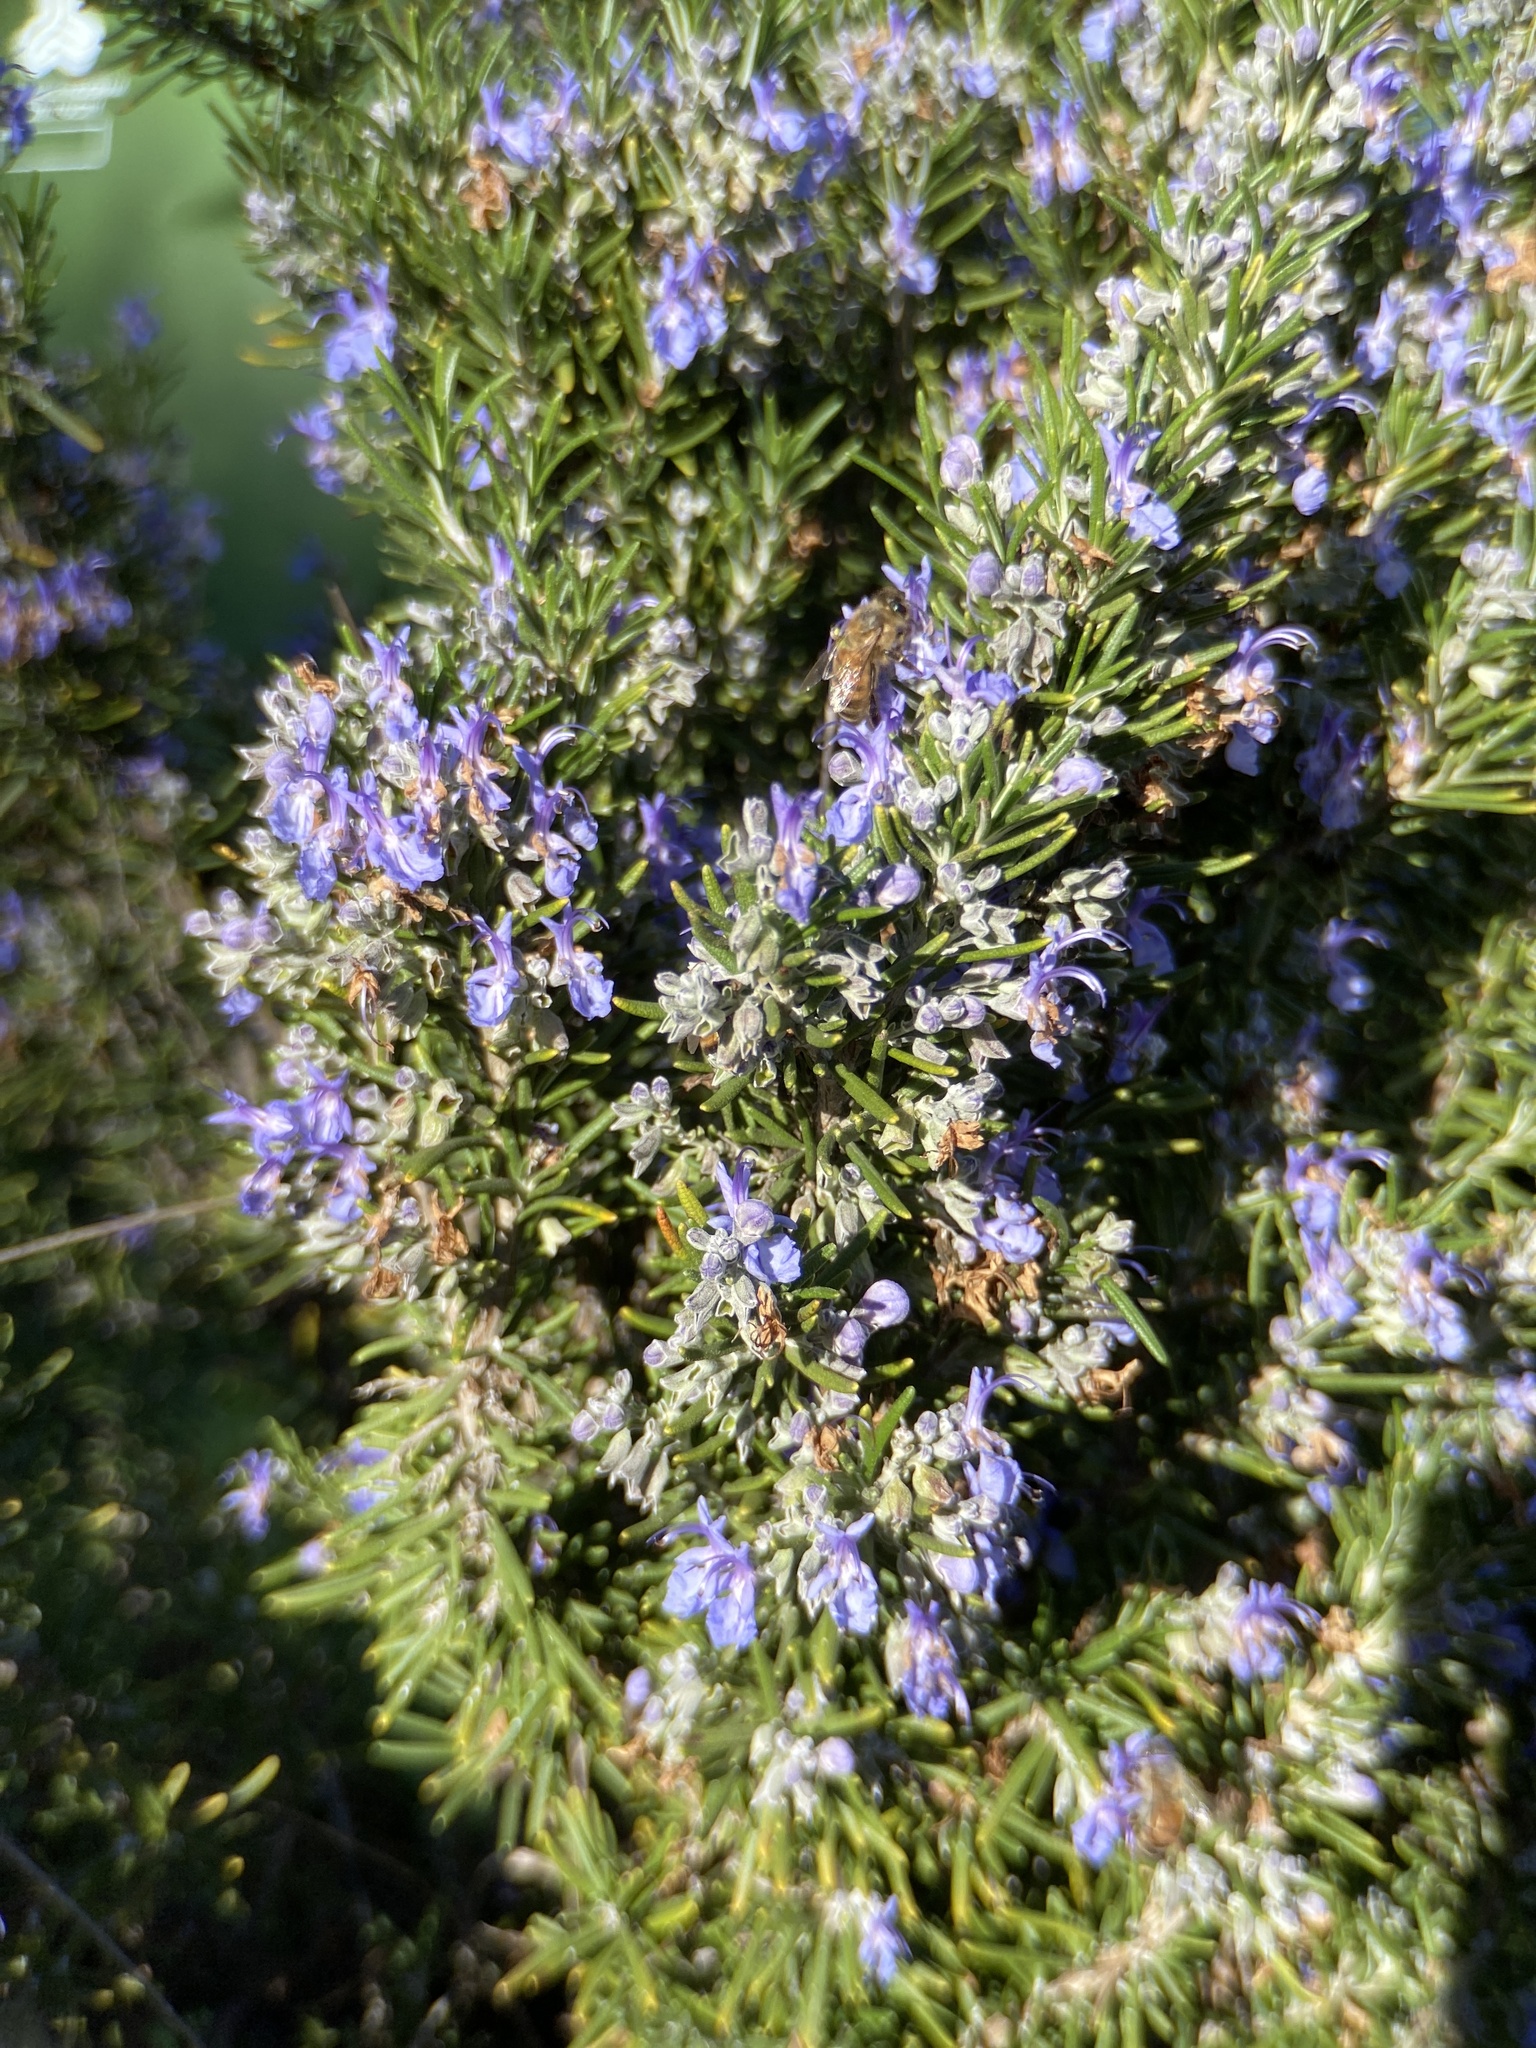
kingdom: Animalia
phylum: Arthropoda
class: Insecta
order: Hymenoptera
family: Apidae
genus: Apis
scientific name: Apis mellifera
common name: Honey bee
